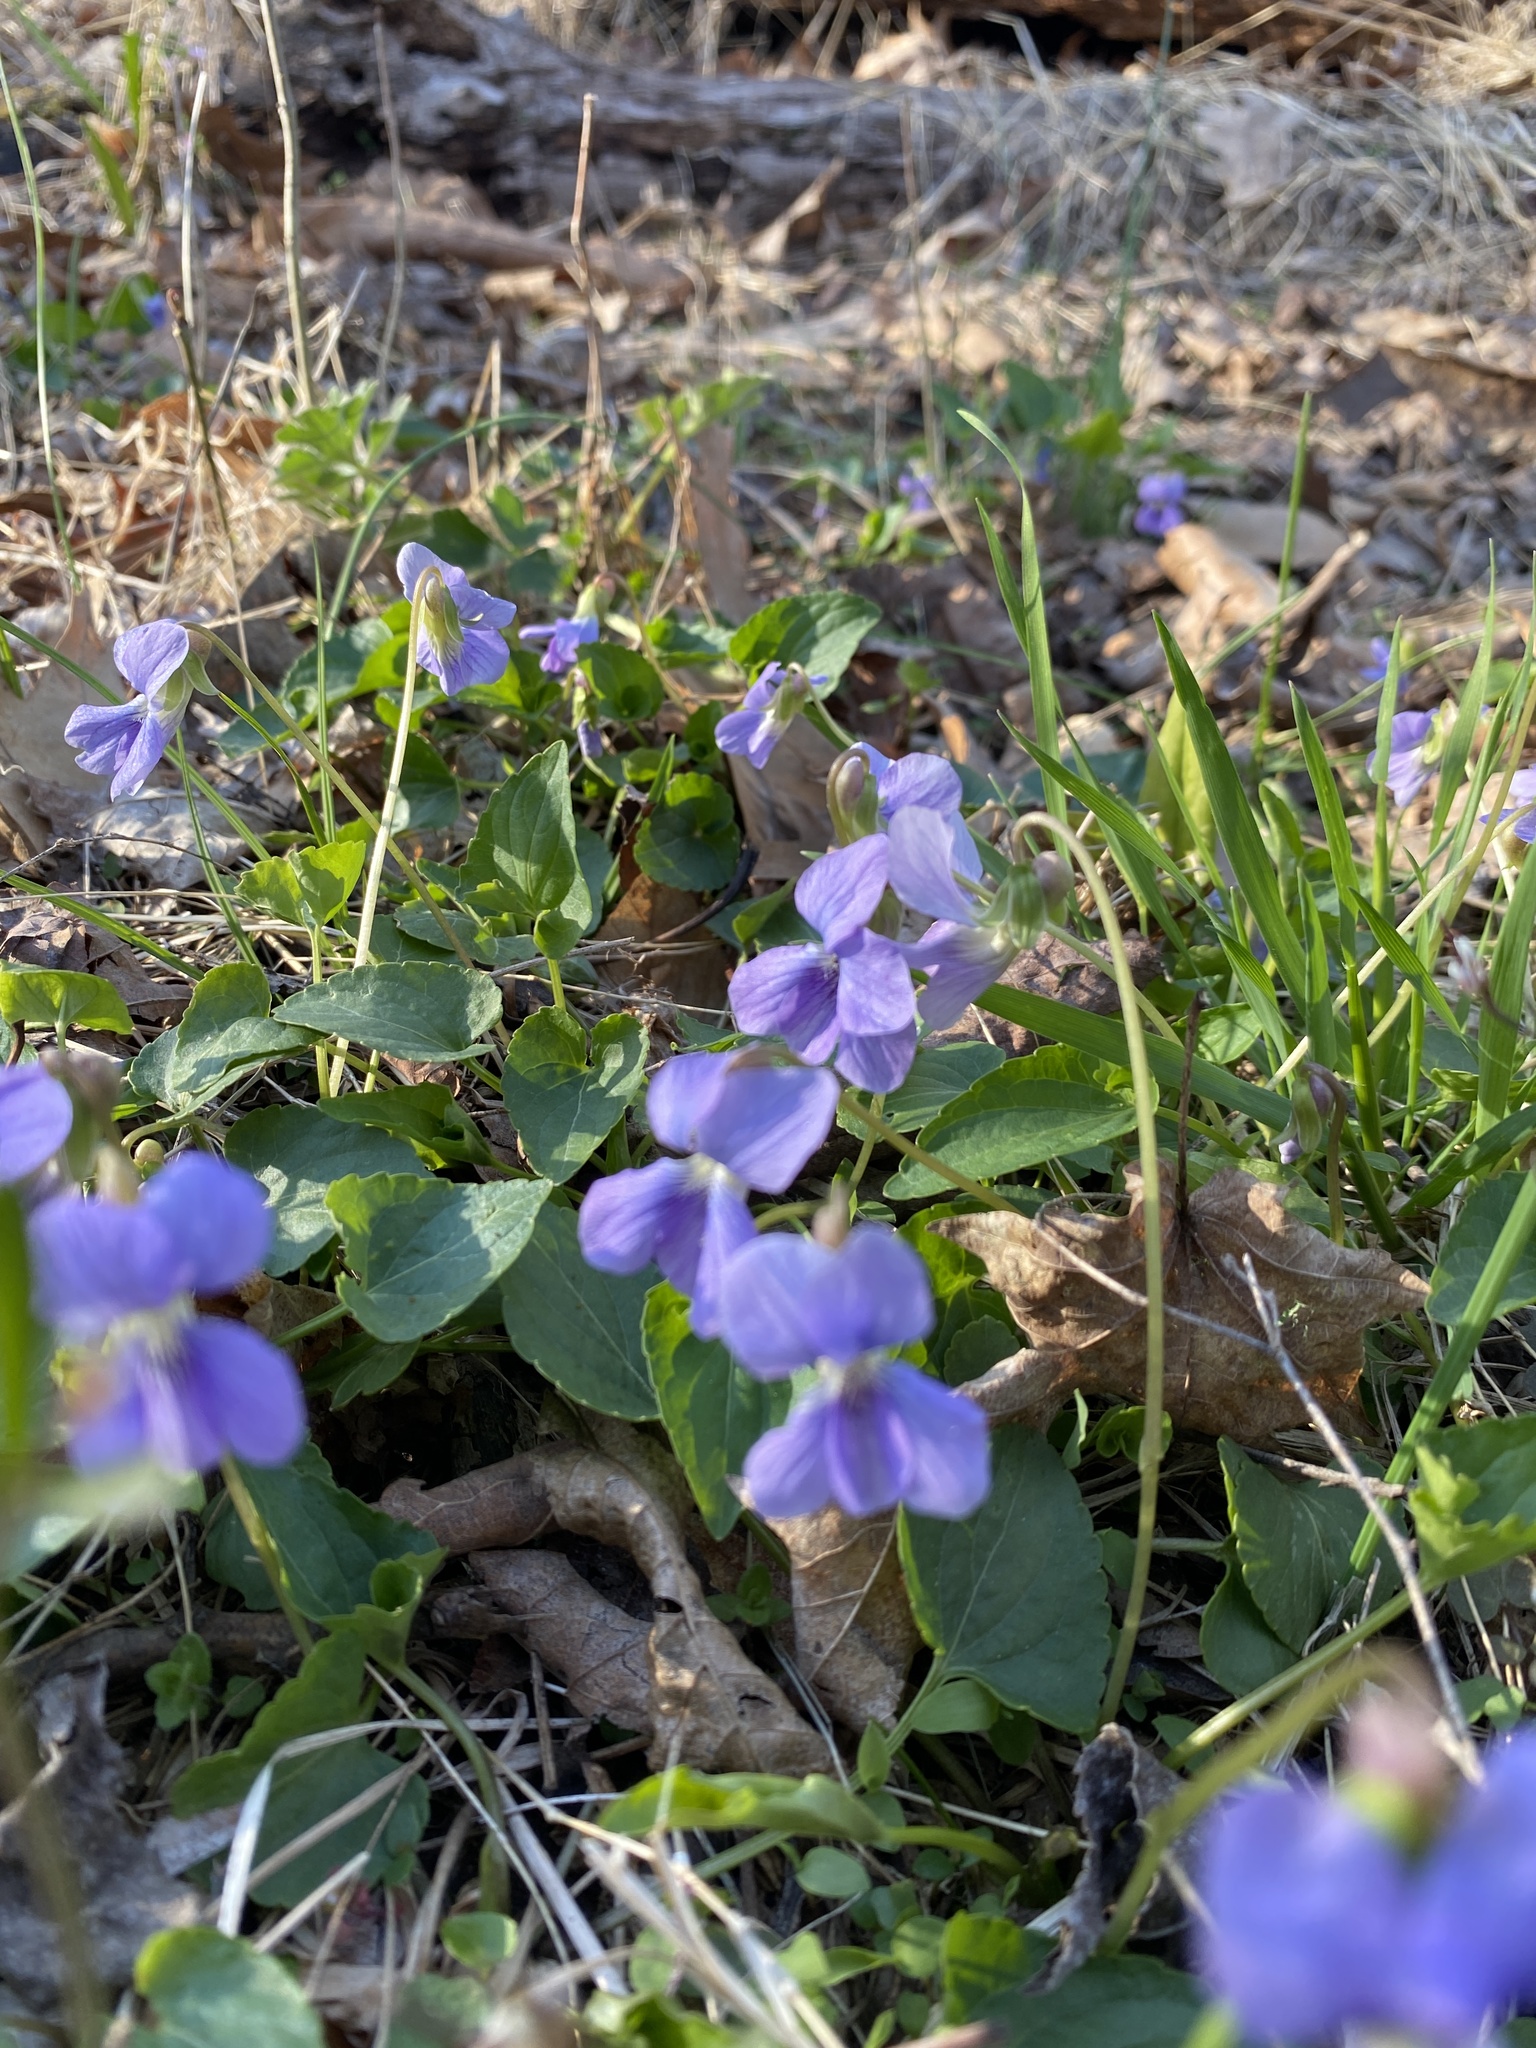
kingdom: Plantae
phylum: Tracheophyta
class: Magnoliopsida
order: Malpighiales
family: Violaceae
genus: Viola
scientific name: Viola affinis
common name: Leconte's violet
